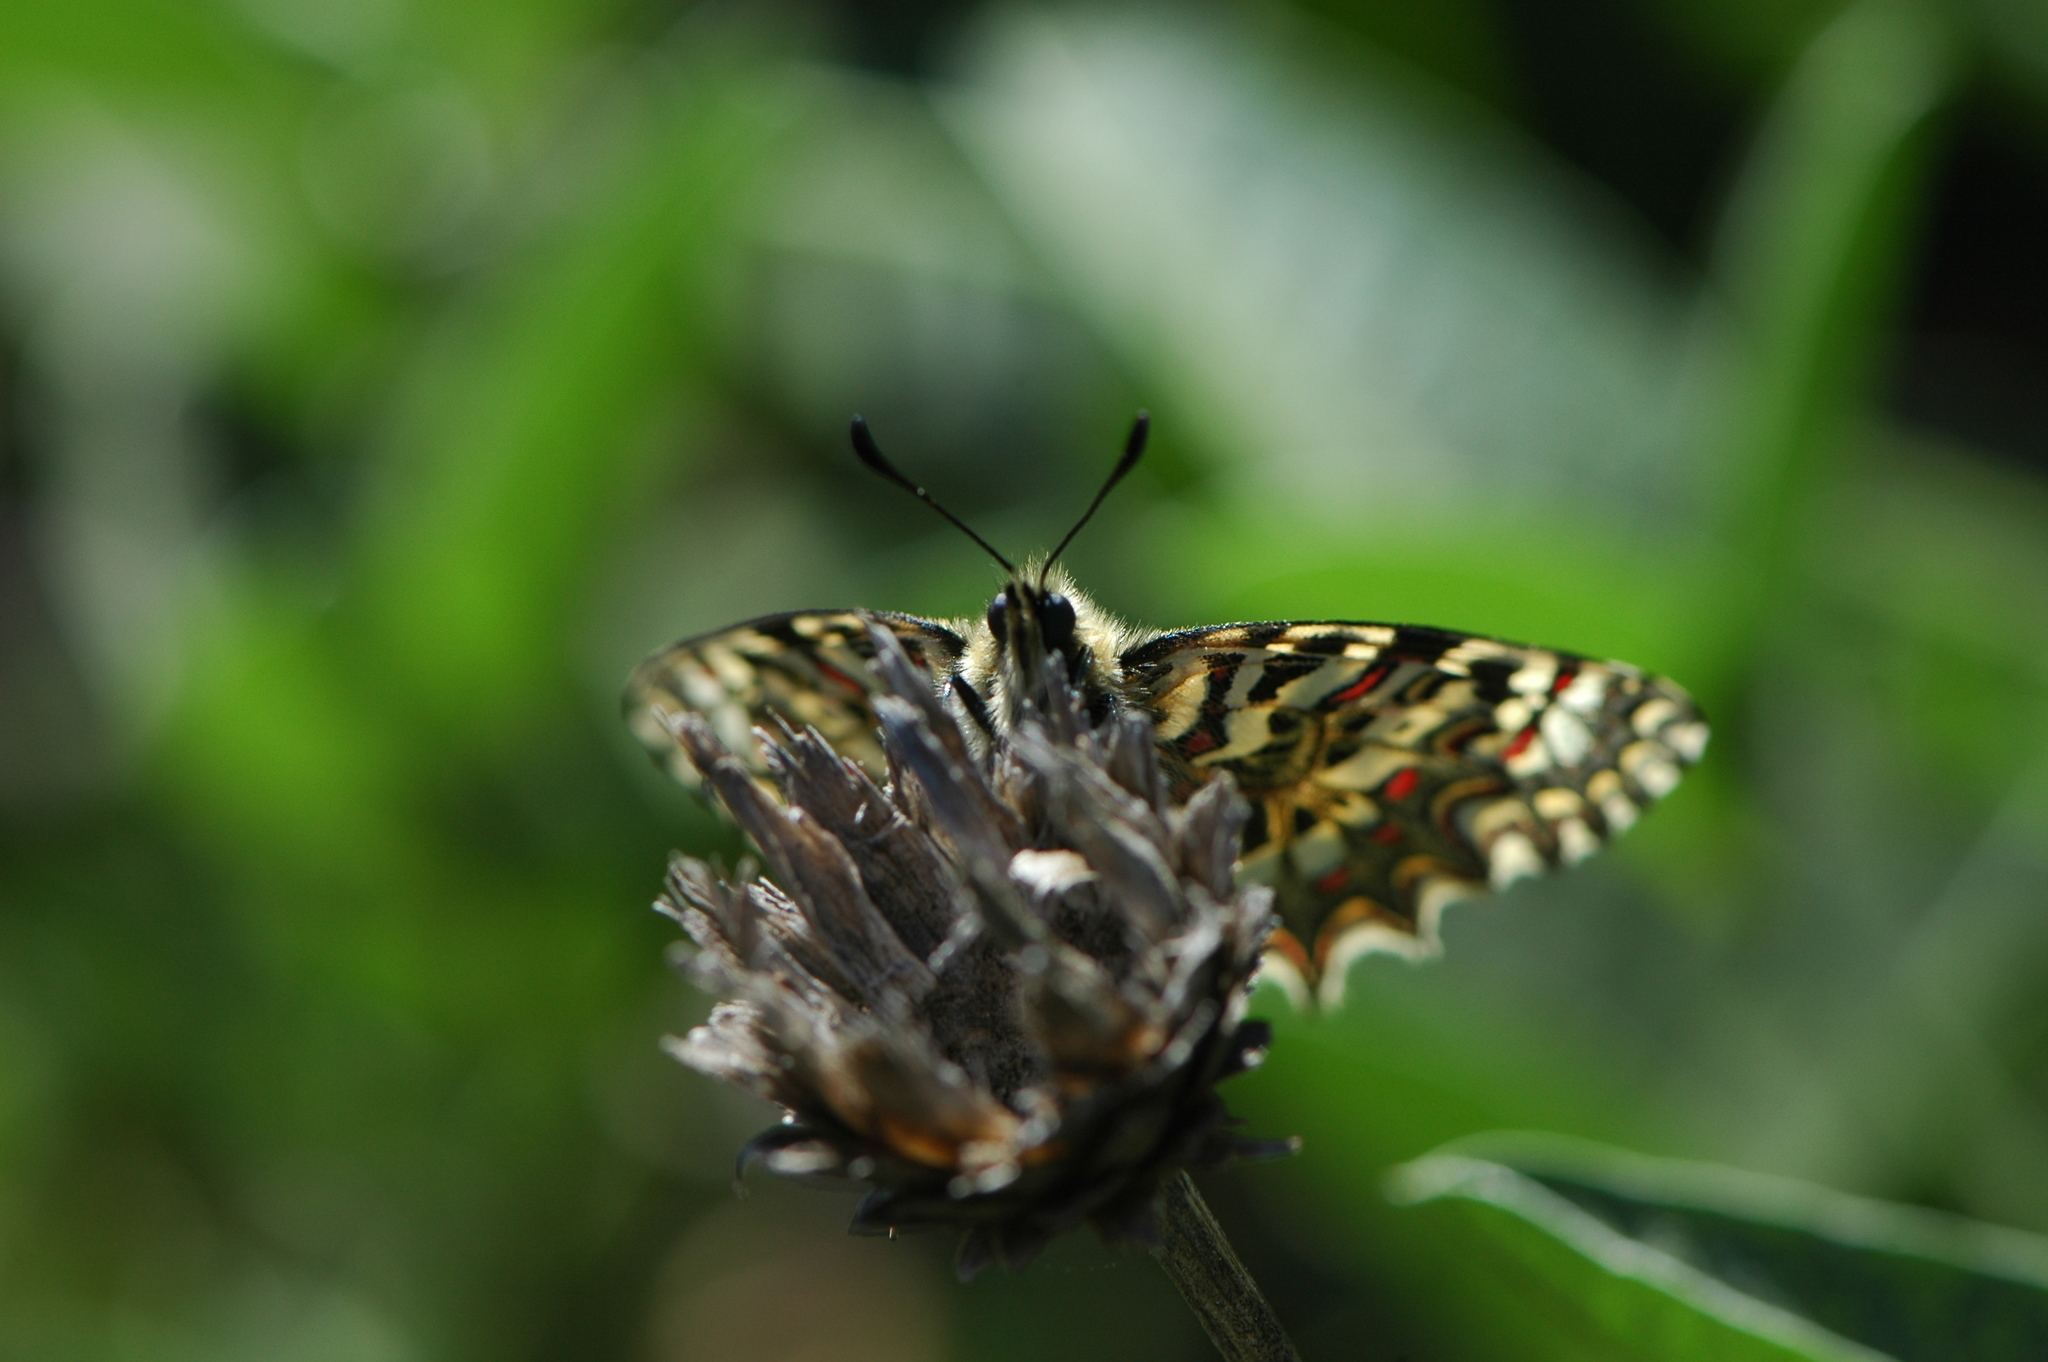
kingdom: Animalia
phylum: Arthropoda
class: Insecta
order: Lepidoptera
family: Papilionidae
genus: Zerynthia
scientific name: Zerynthia rumina
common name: Spanish festoon
